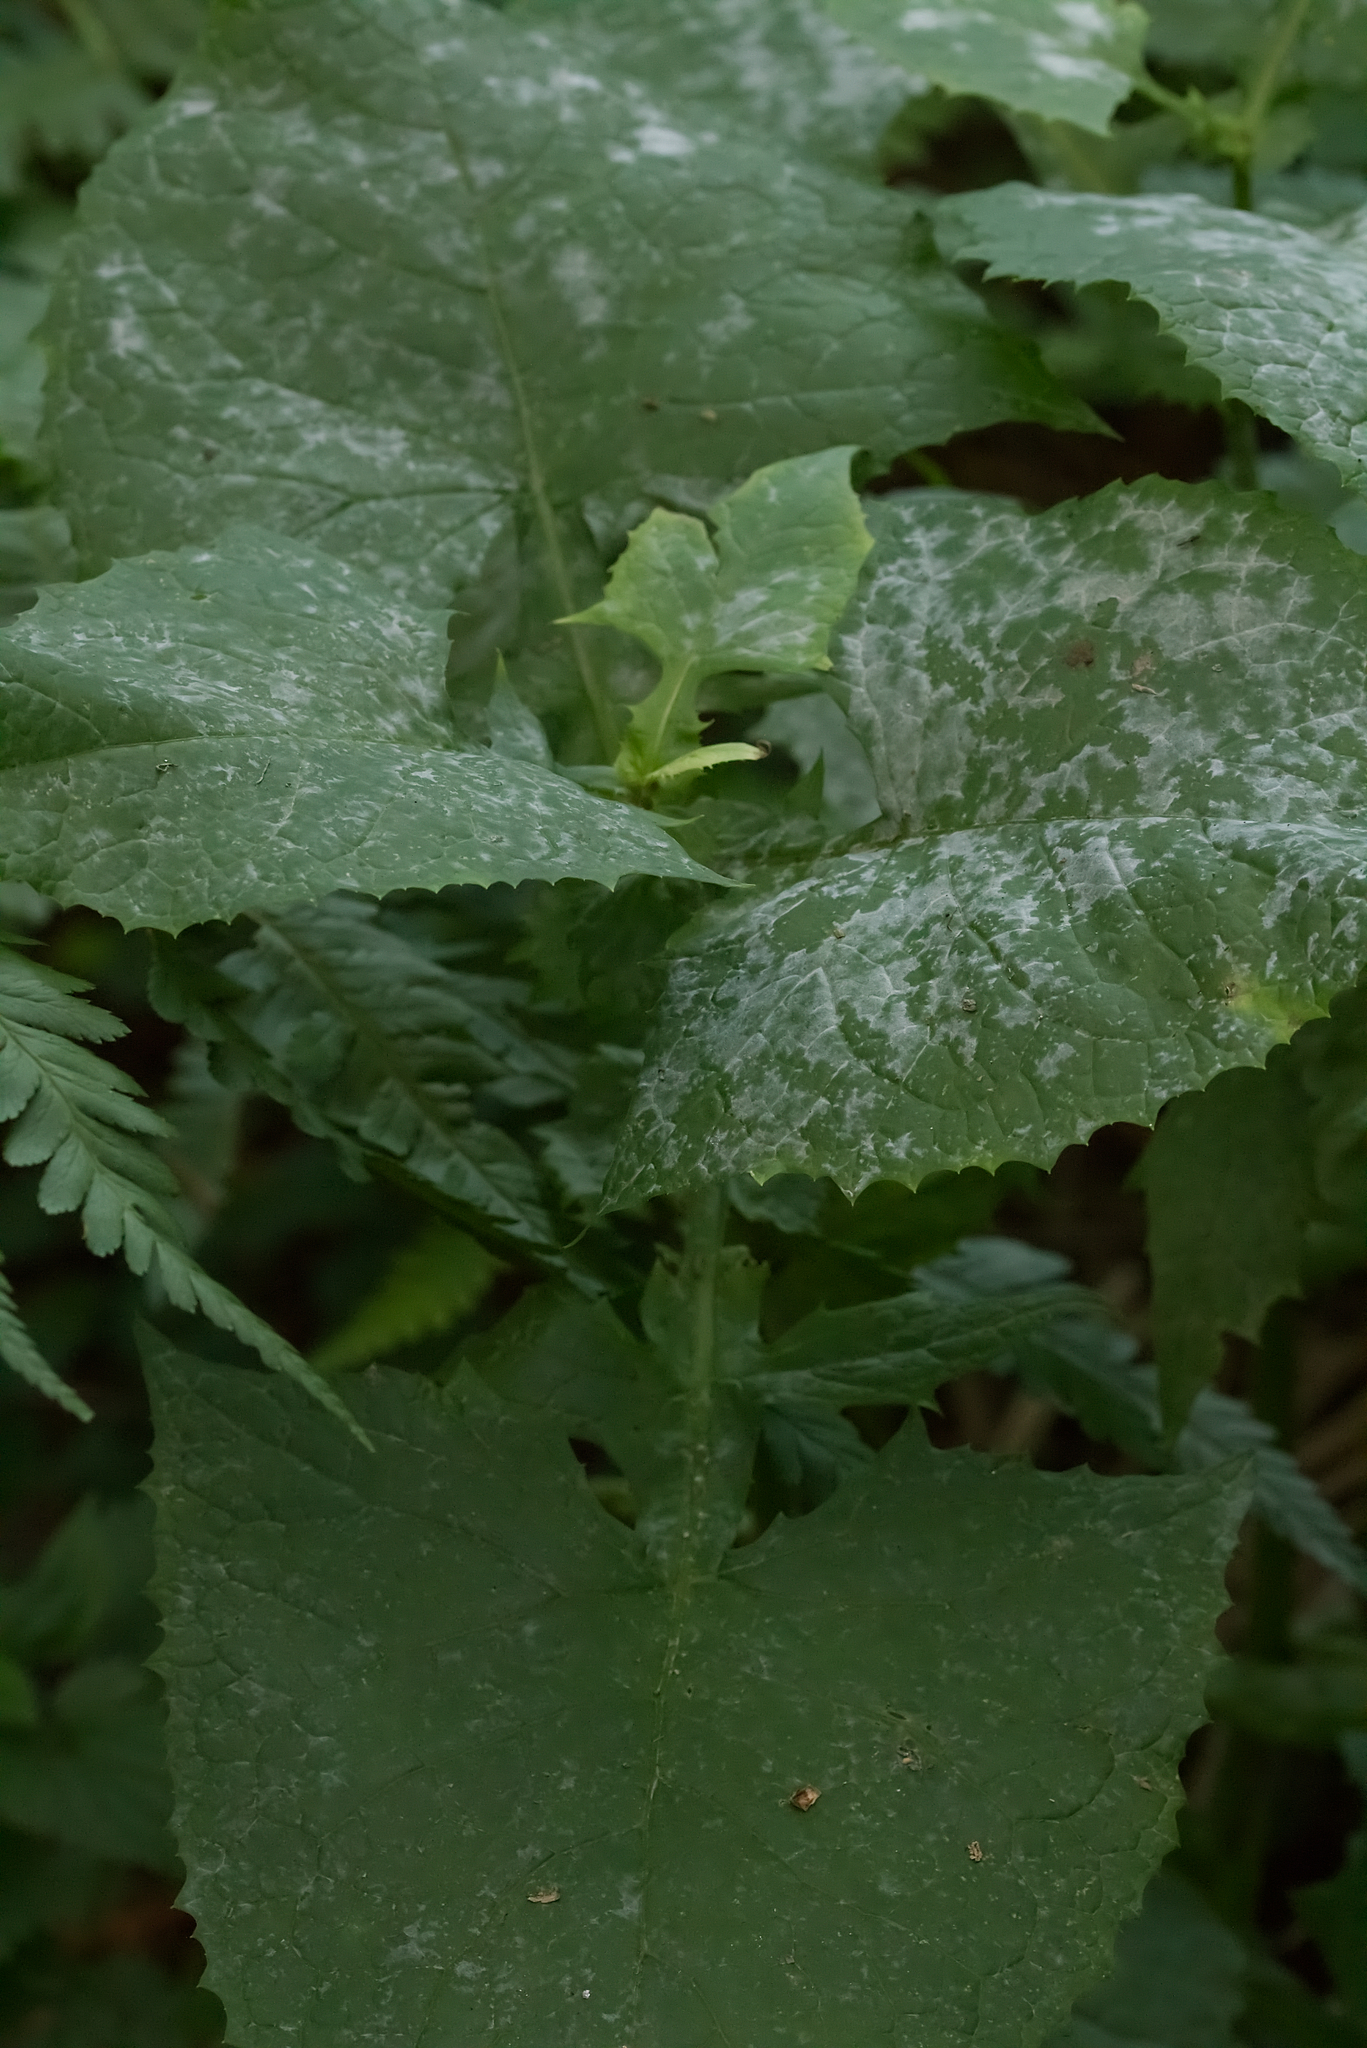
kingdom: Plantae
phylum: Tracheophyta
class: Magnoliopsida
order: Asterales
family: Asteraceae
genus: Cicerbita
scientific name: Cicerbita alpina
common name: Alpine blue-sow-thistle
